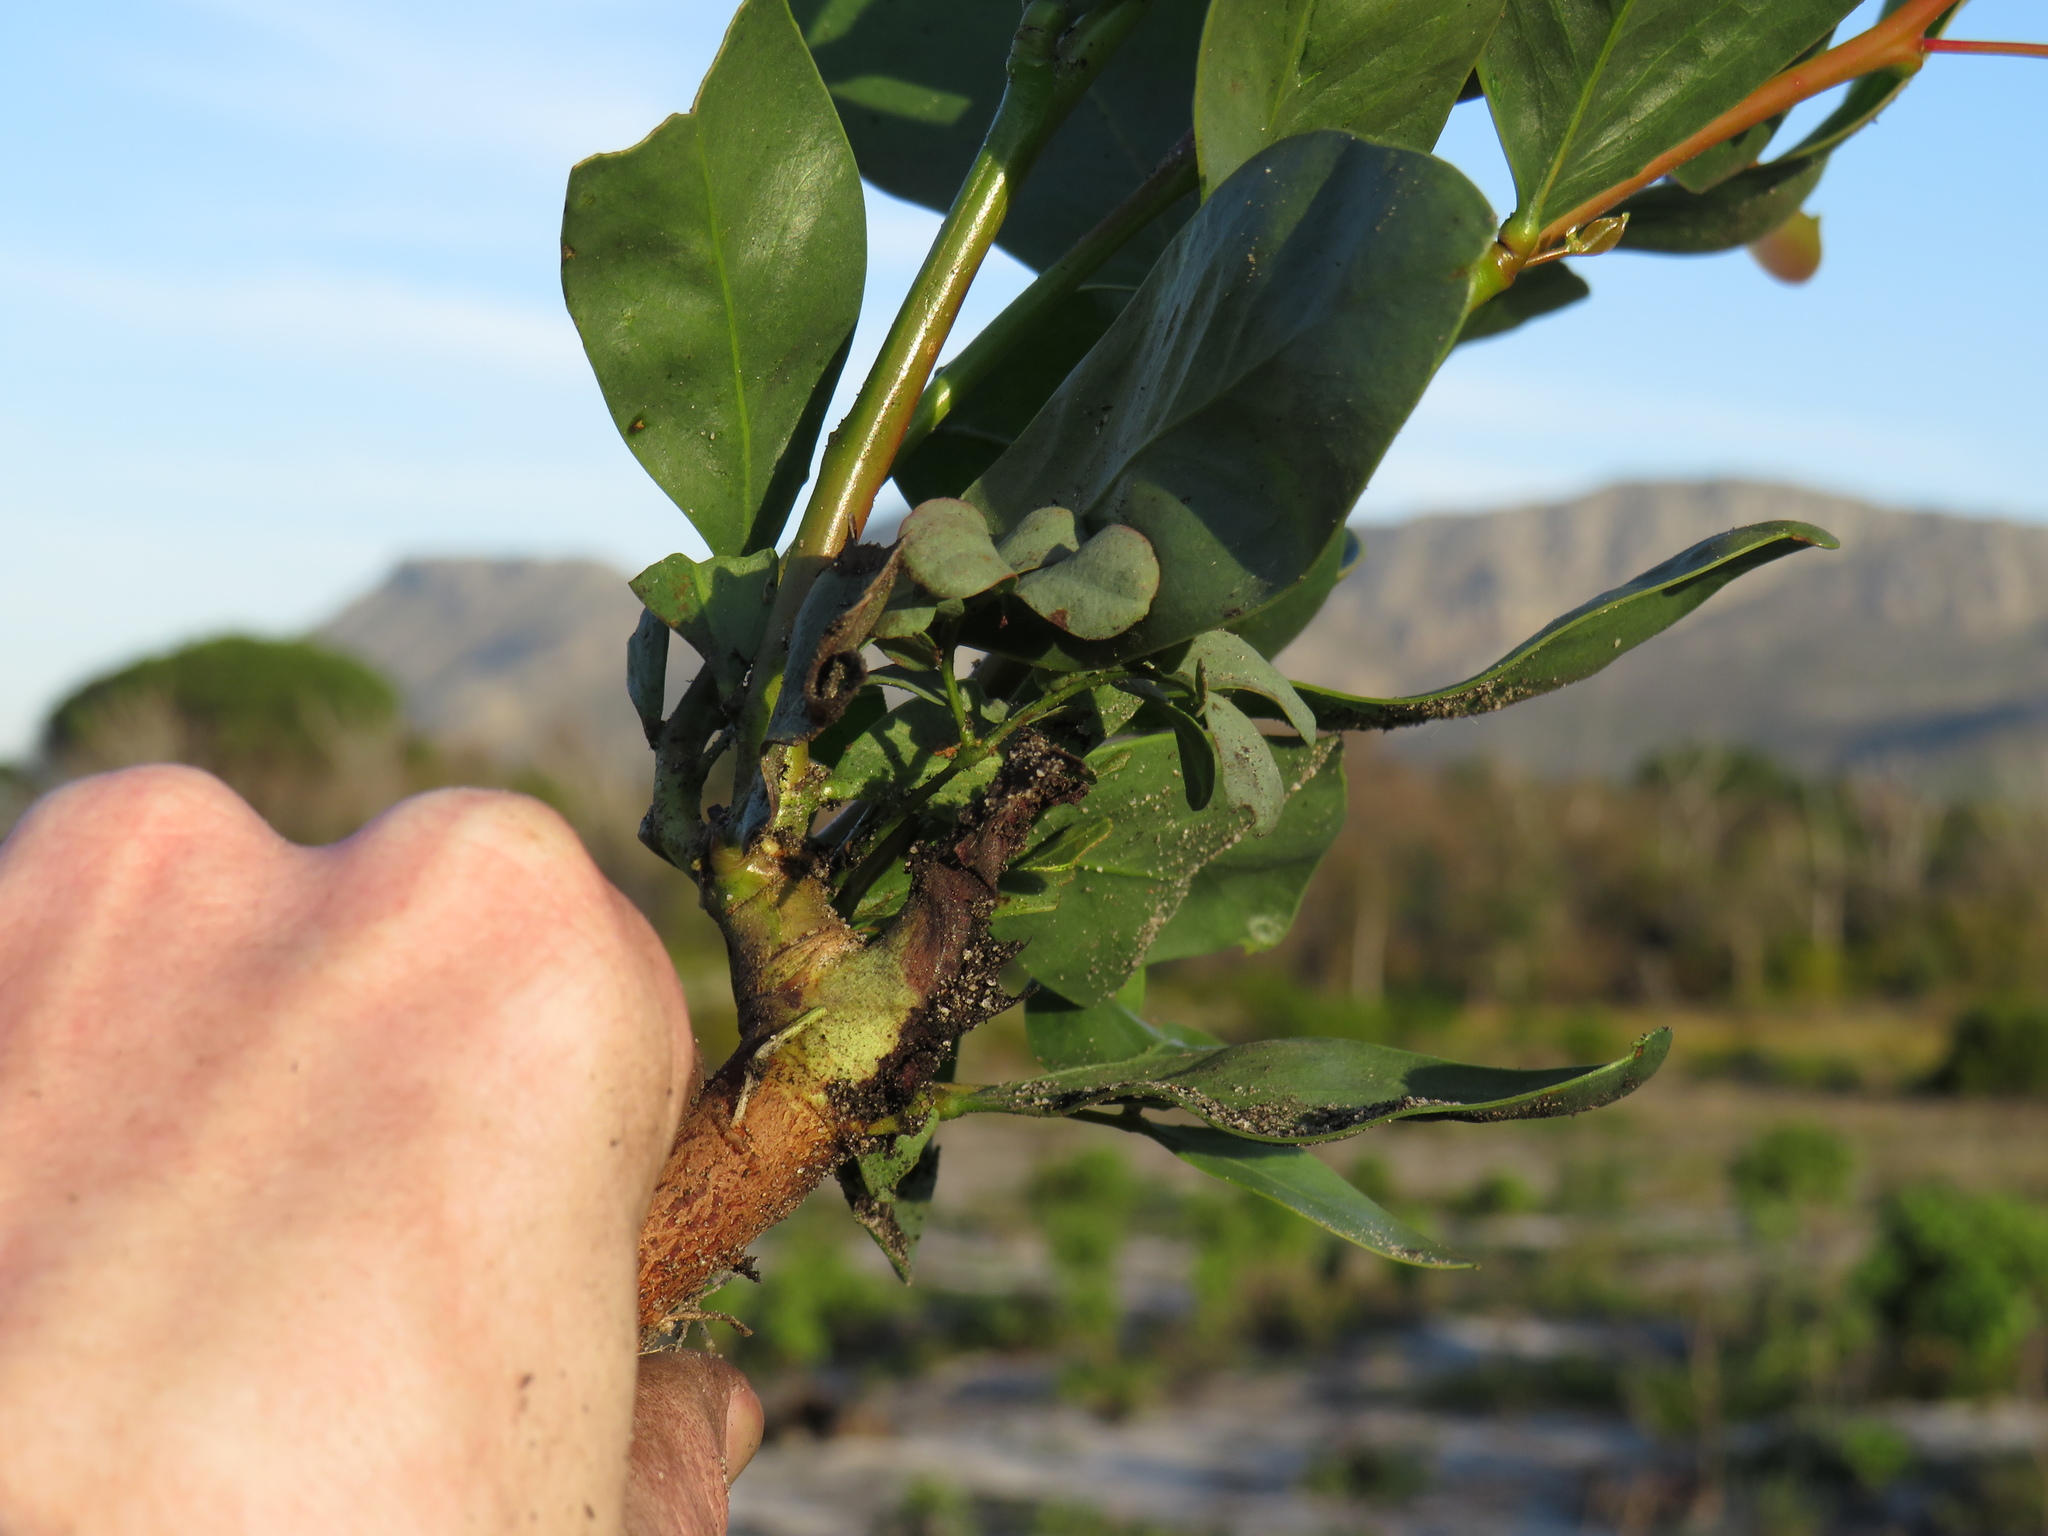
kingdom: Plantae
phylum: Tracheophyta
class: Magnoliopsida
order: Fabales
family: Fabaceae
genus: Acacia
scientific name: Acacia pycnantha
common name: Golden wattle
